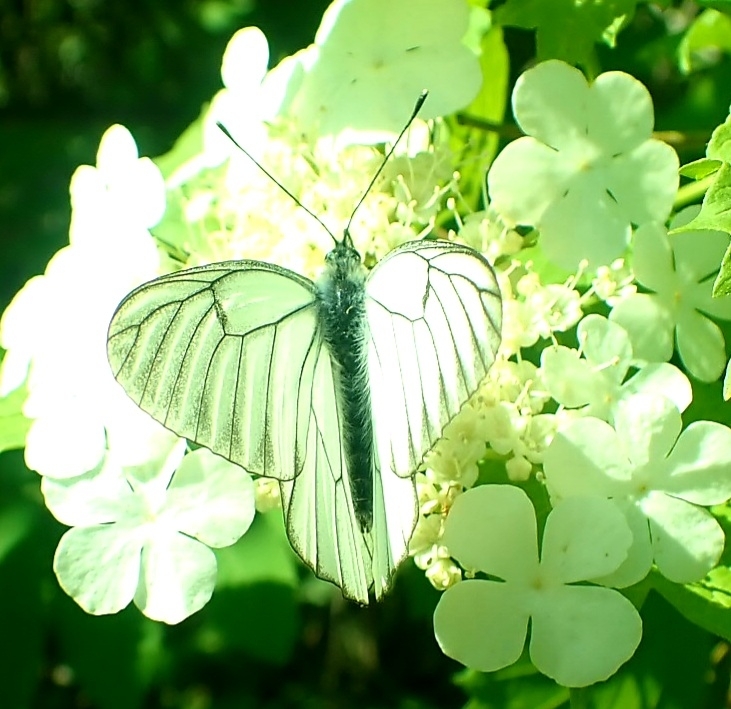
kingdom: Animalia
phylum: Arthropoda
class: Insecta
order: Lepidoptera
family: Pieridae
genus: Aporia
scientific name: Aporia crataegi
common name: Black-veined white
